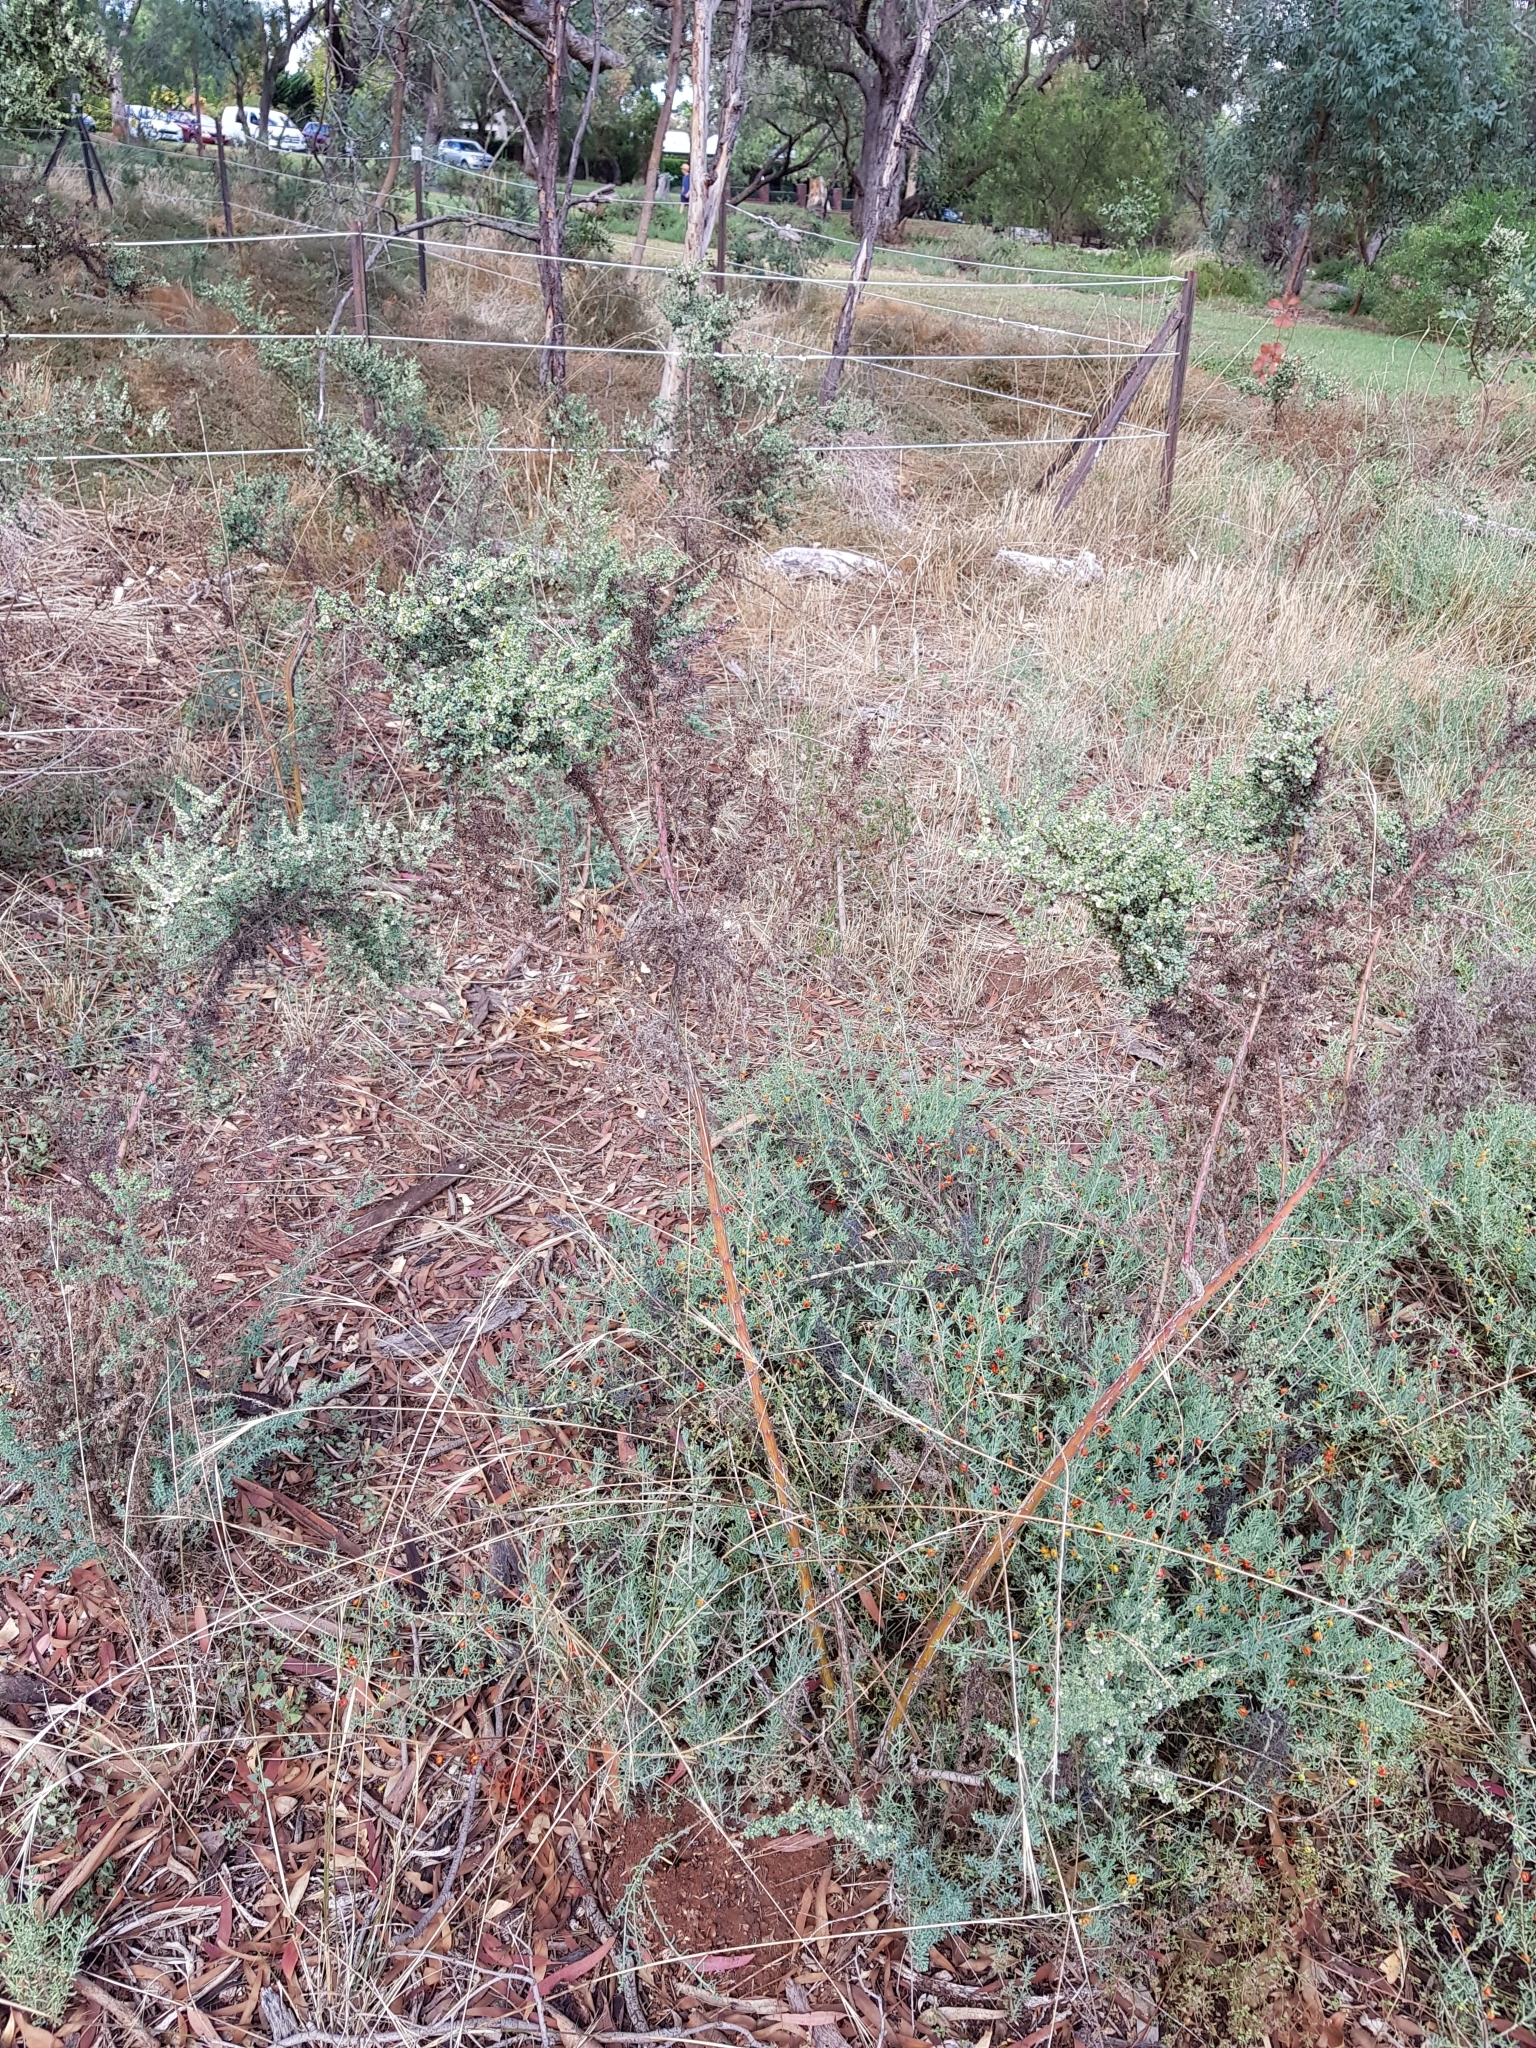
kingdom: Plantae
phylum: Tracheophyta
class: Magnoliopsida
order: Caryophyllales
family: Amaranthaceae
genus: Maireana
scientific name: Maireana brevifolia
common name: Eastern cottonbush
